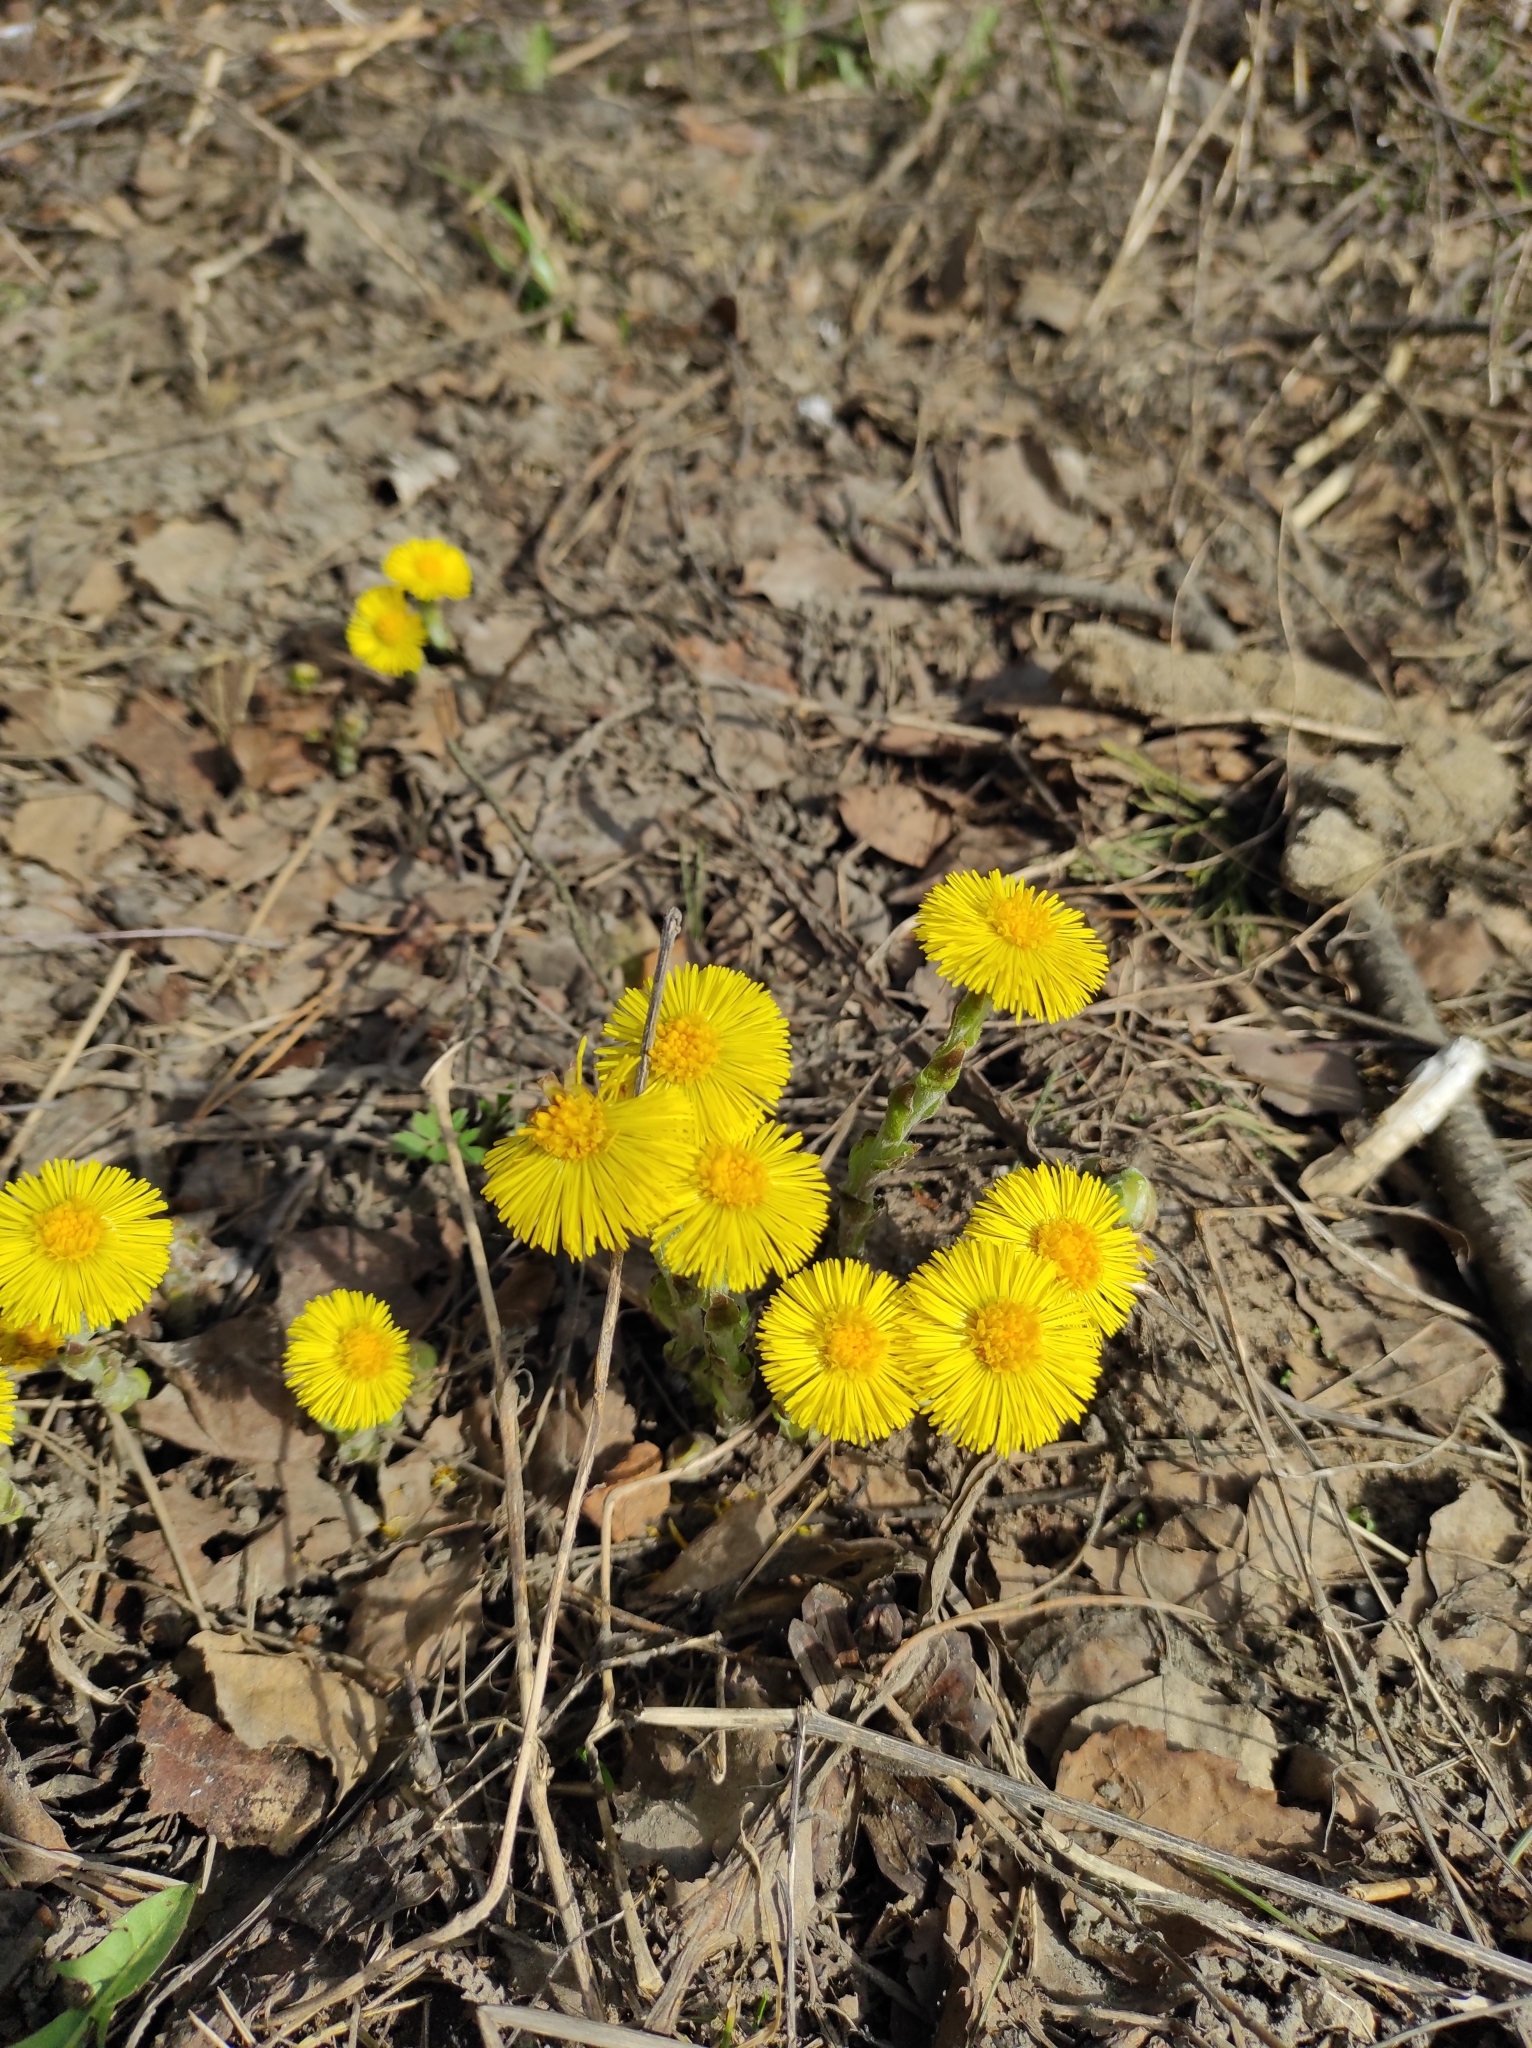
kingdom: Plantae
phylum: Tracheophyta
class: Magnoliopsida
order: Asterales
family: Asteraceae
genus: Tussilago
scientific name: Tussilago farfara
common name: Coltsfoot
